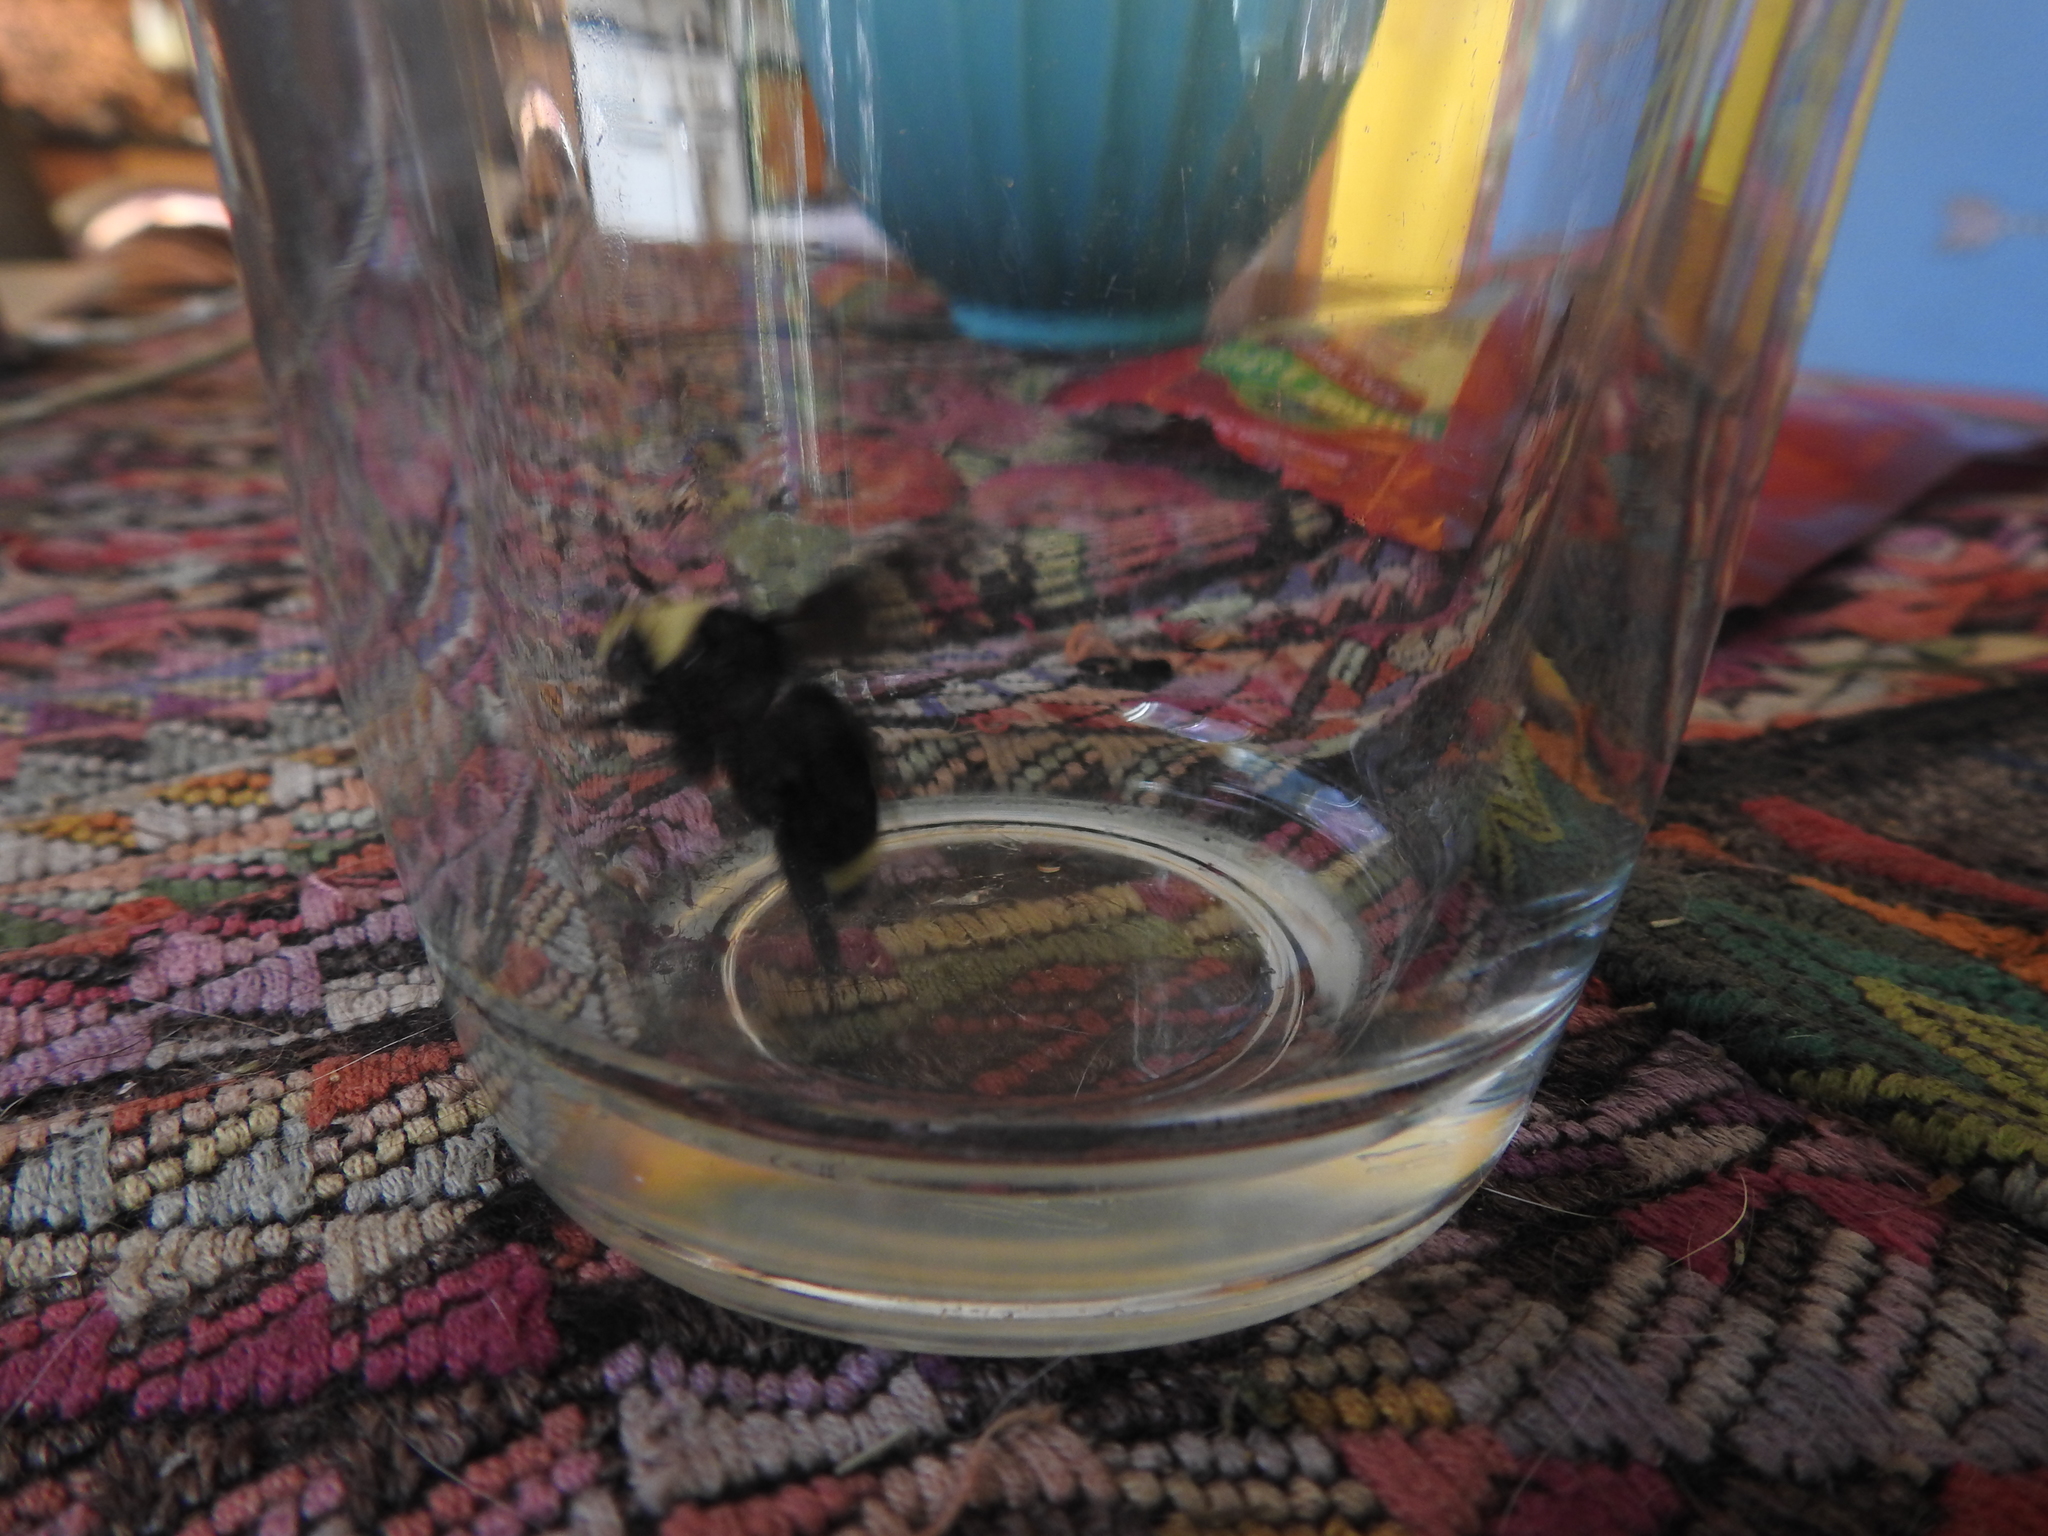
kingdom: Animalia
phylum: Arthropoda
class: Insecta
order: Hymenoptera
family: Apidae
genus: Bombus
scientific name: Bombus vosnesenskii
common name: Vosnesensky bumble bee
